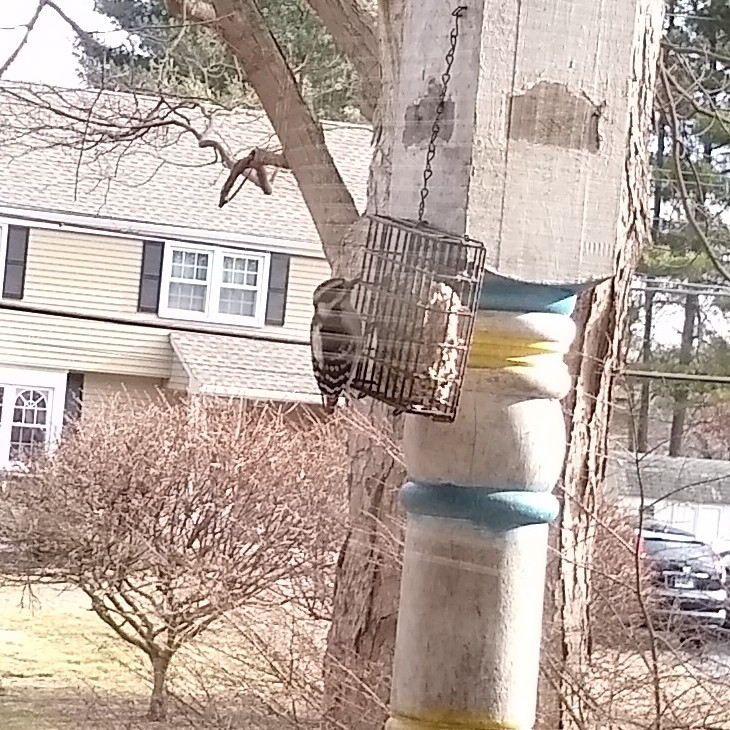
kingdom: Animalia
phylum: Chordata
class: Aves
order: Piciformes
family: Picidae
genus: Dryobates
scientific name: Dryobates pubescens
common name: Downy woodpecker
